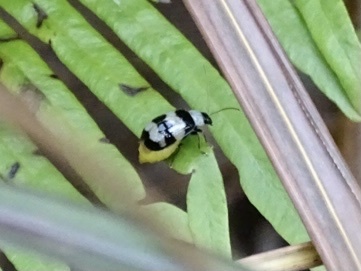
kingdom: Animalia
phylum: Arthropoda
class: Insecta
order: Coleoptera
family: Chrysomelidae
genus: Monolepta
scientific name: Monolepta
